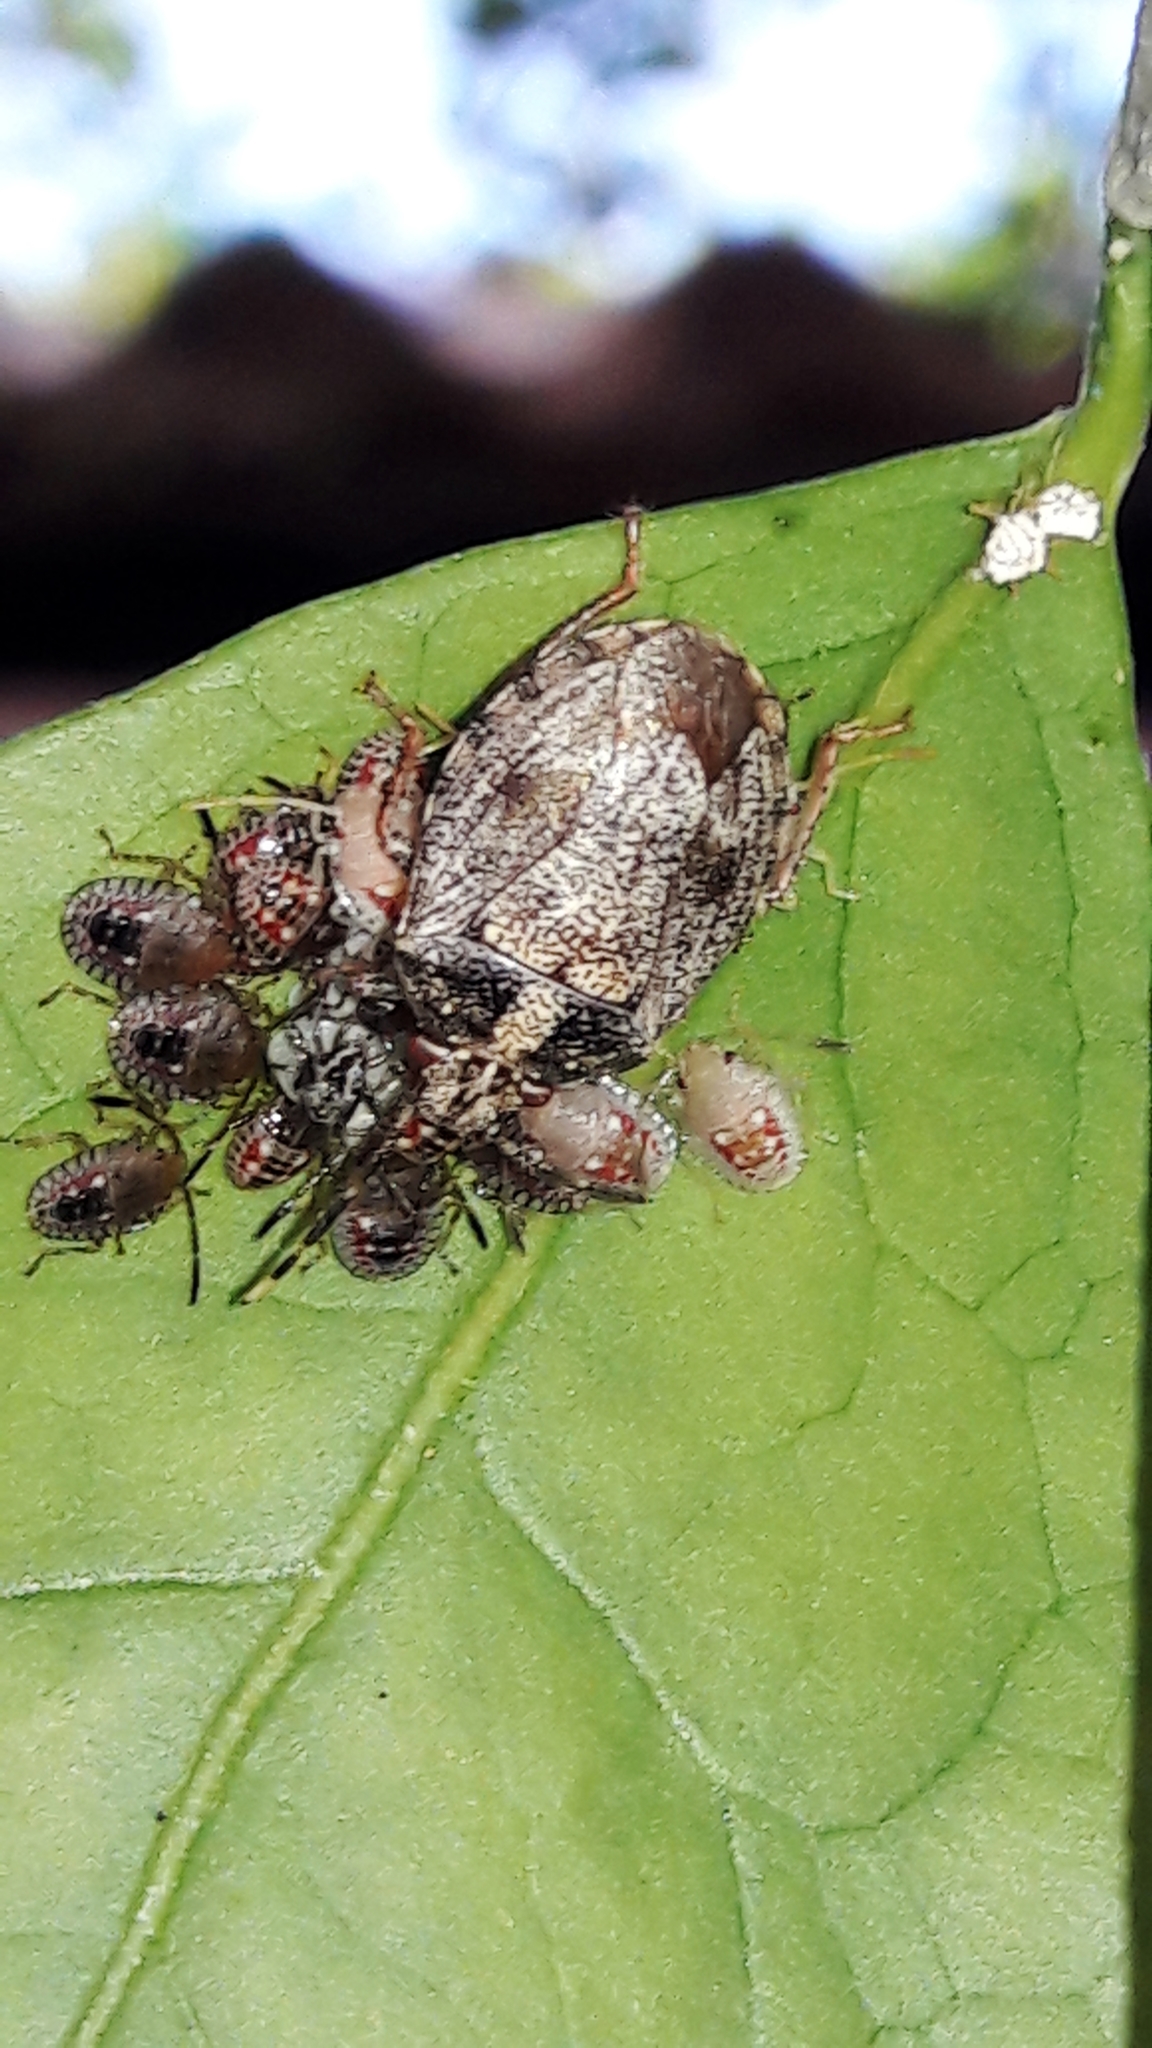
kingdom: Animalia
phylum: Arthropoda
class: Insecta
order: Hemiptera
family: Pentatomidae
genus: Antiteuchus
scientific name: Antiteuchus tripterus
